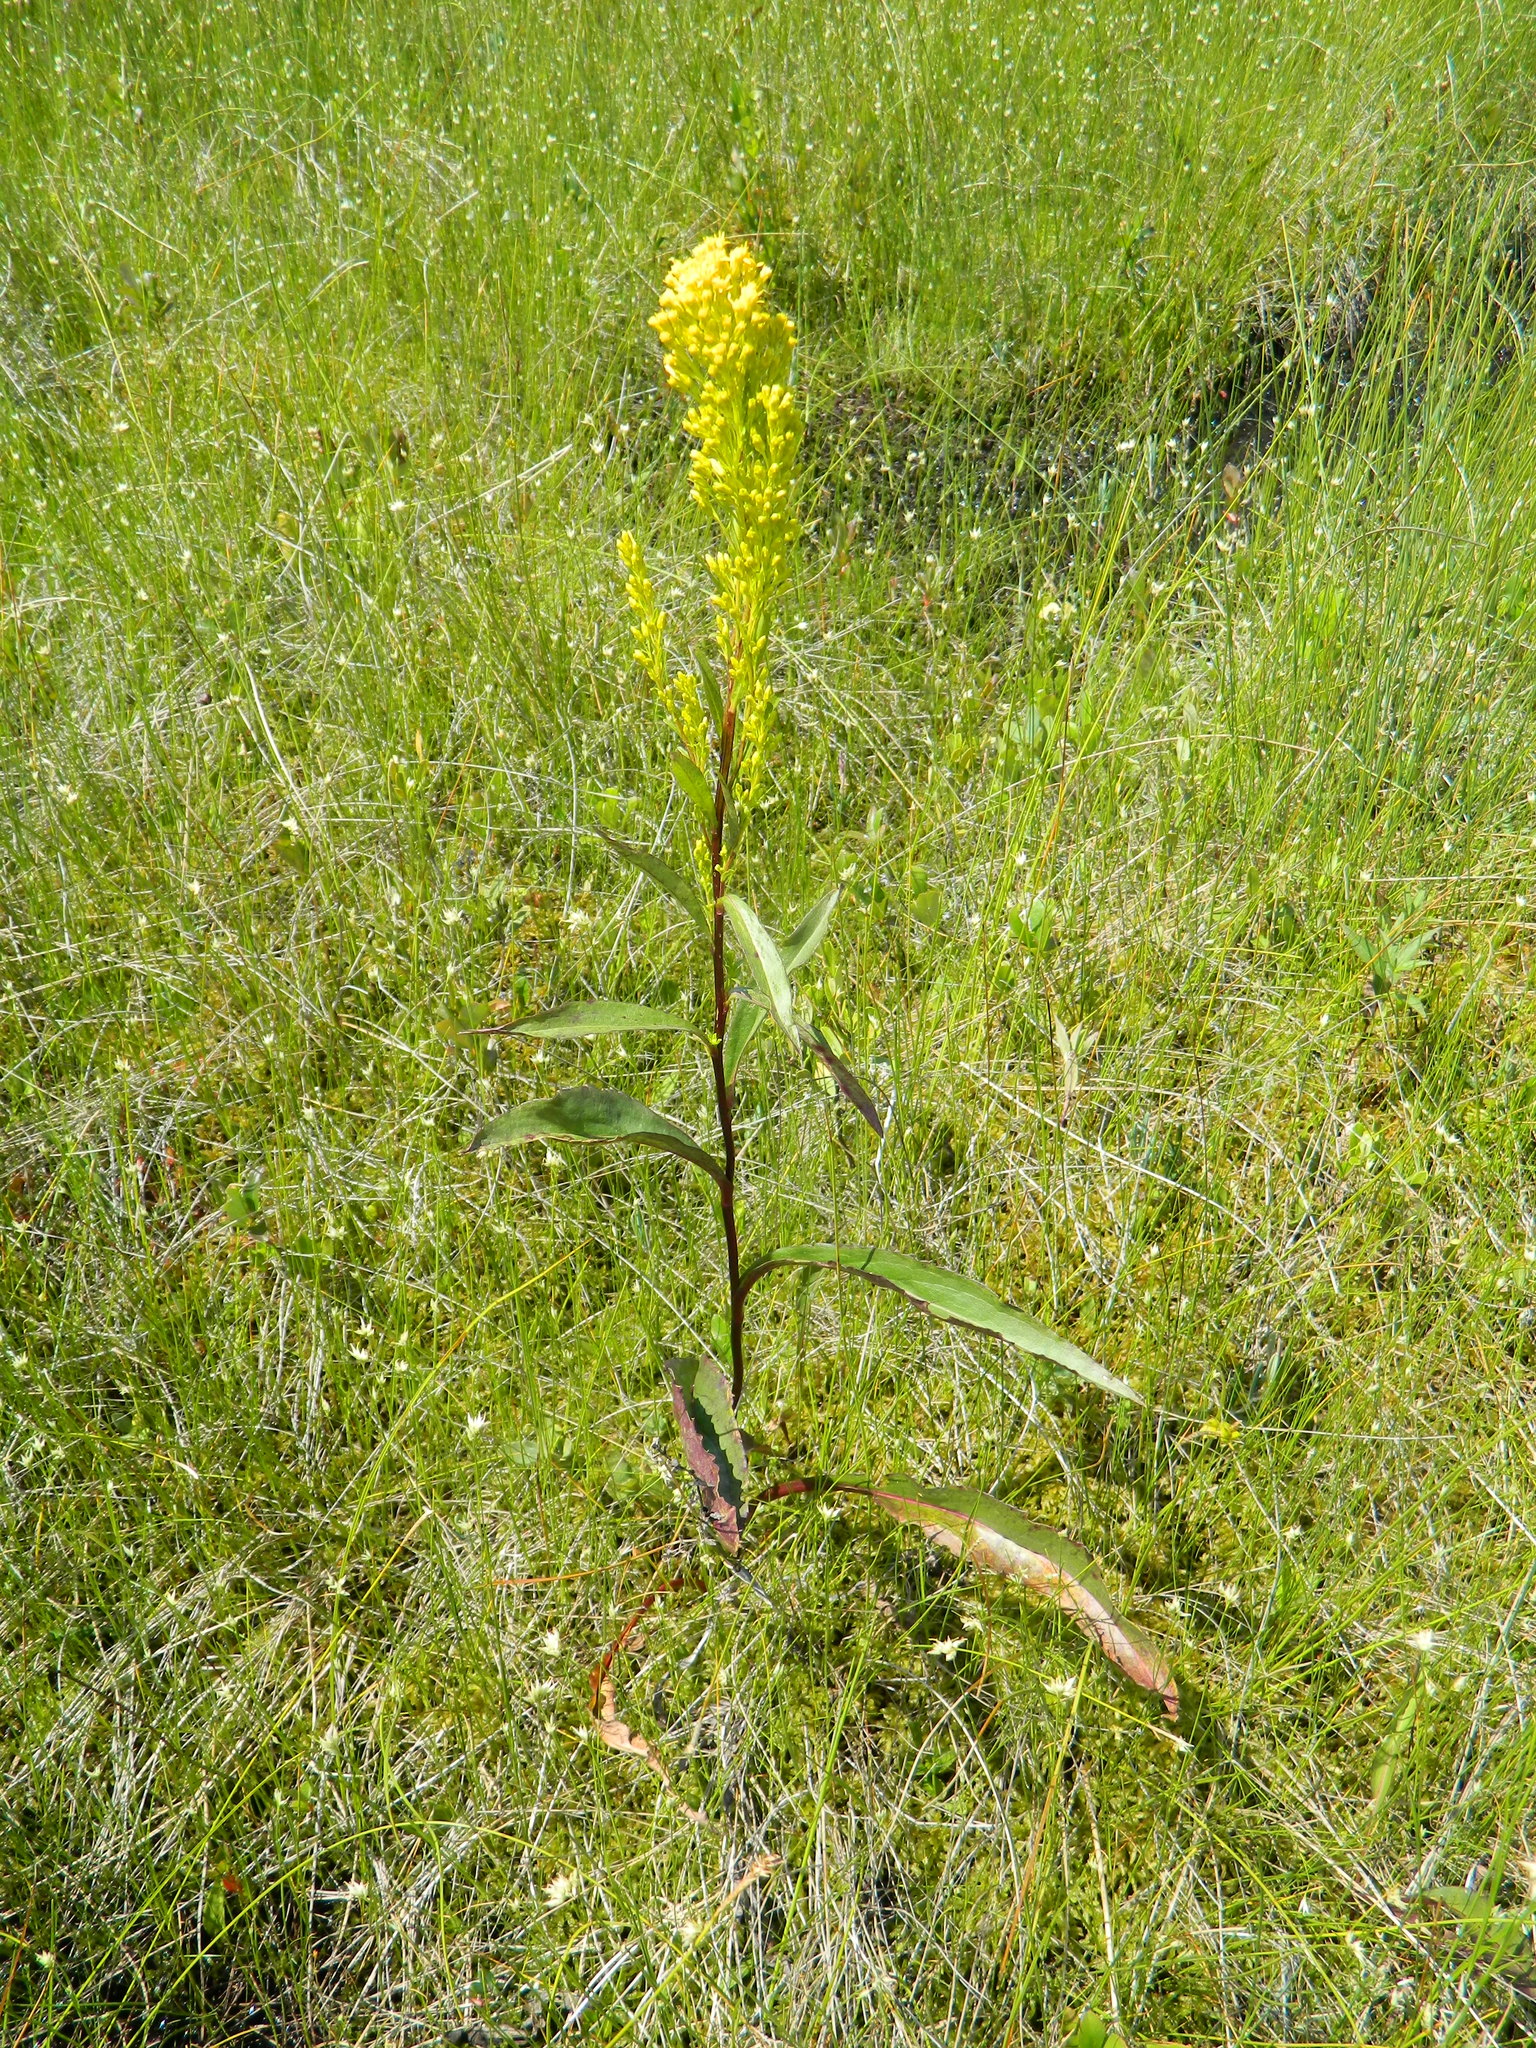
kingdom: Plantae
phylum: Tracheophyta
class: Magnoliopsida
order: Asterales
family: Asteraceae
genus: Solidago
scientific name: Solidago uliginosa
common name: Bog goldenrod
